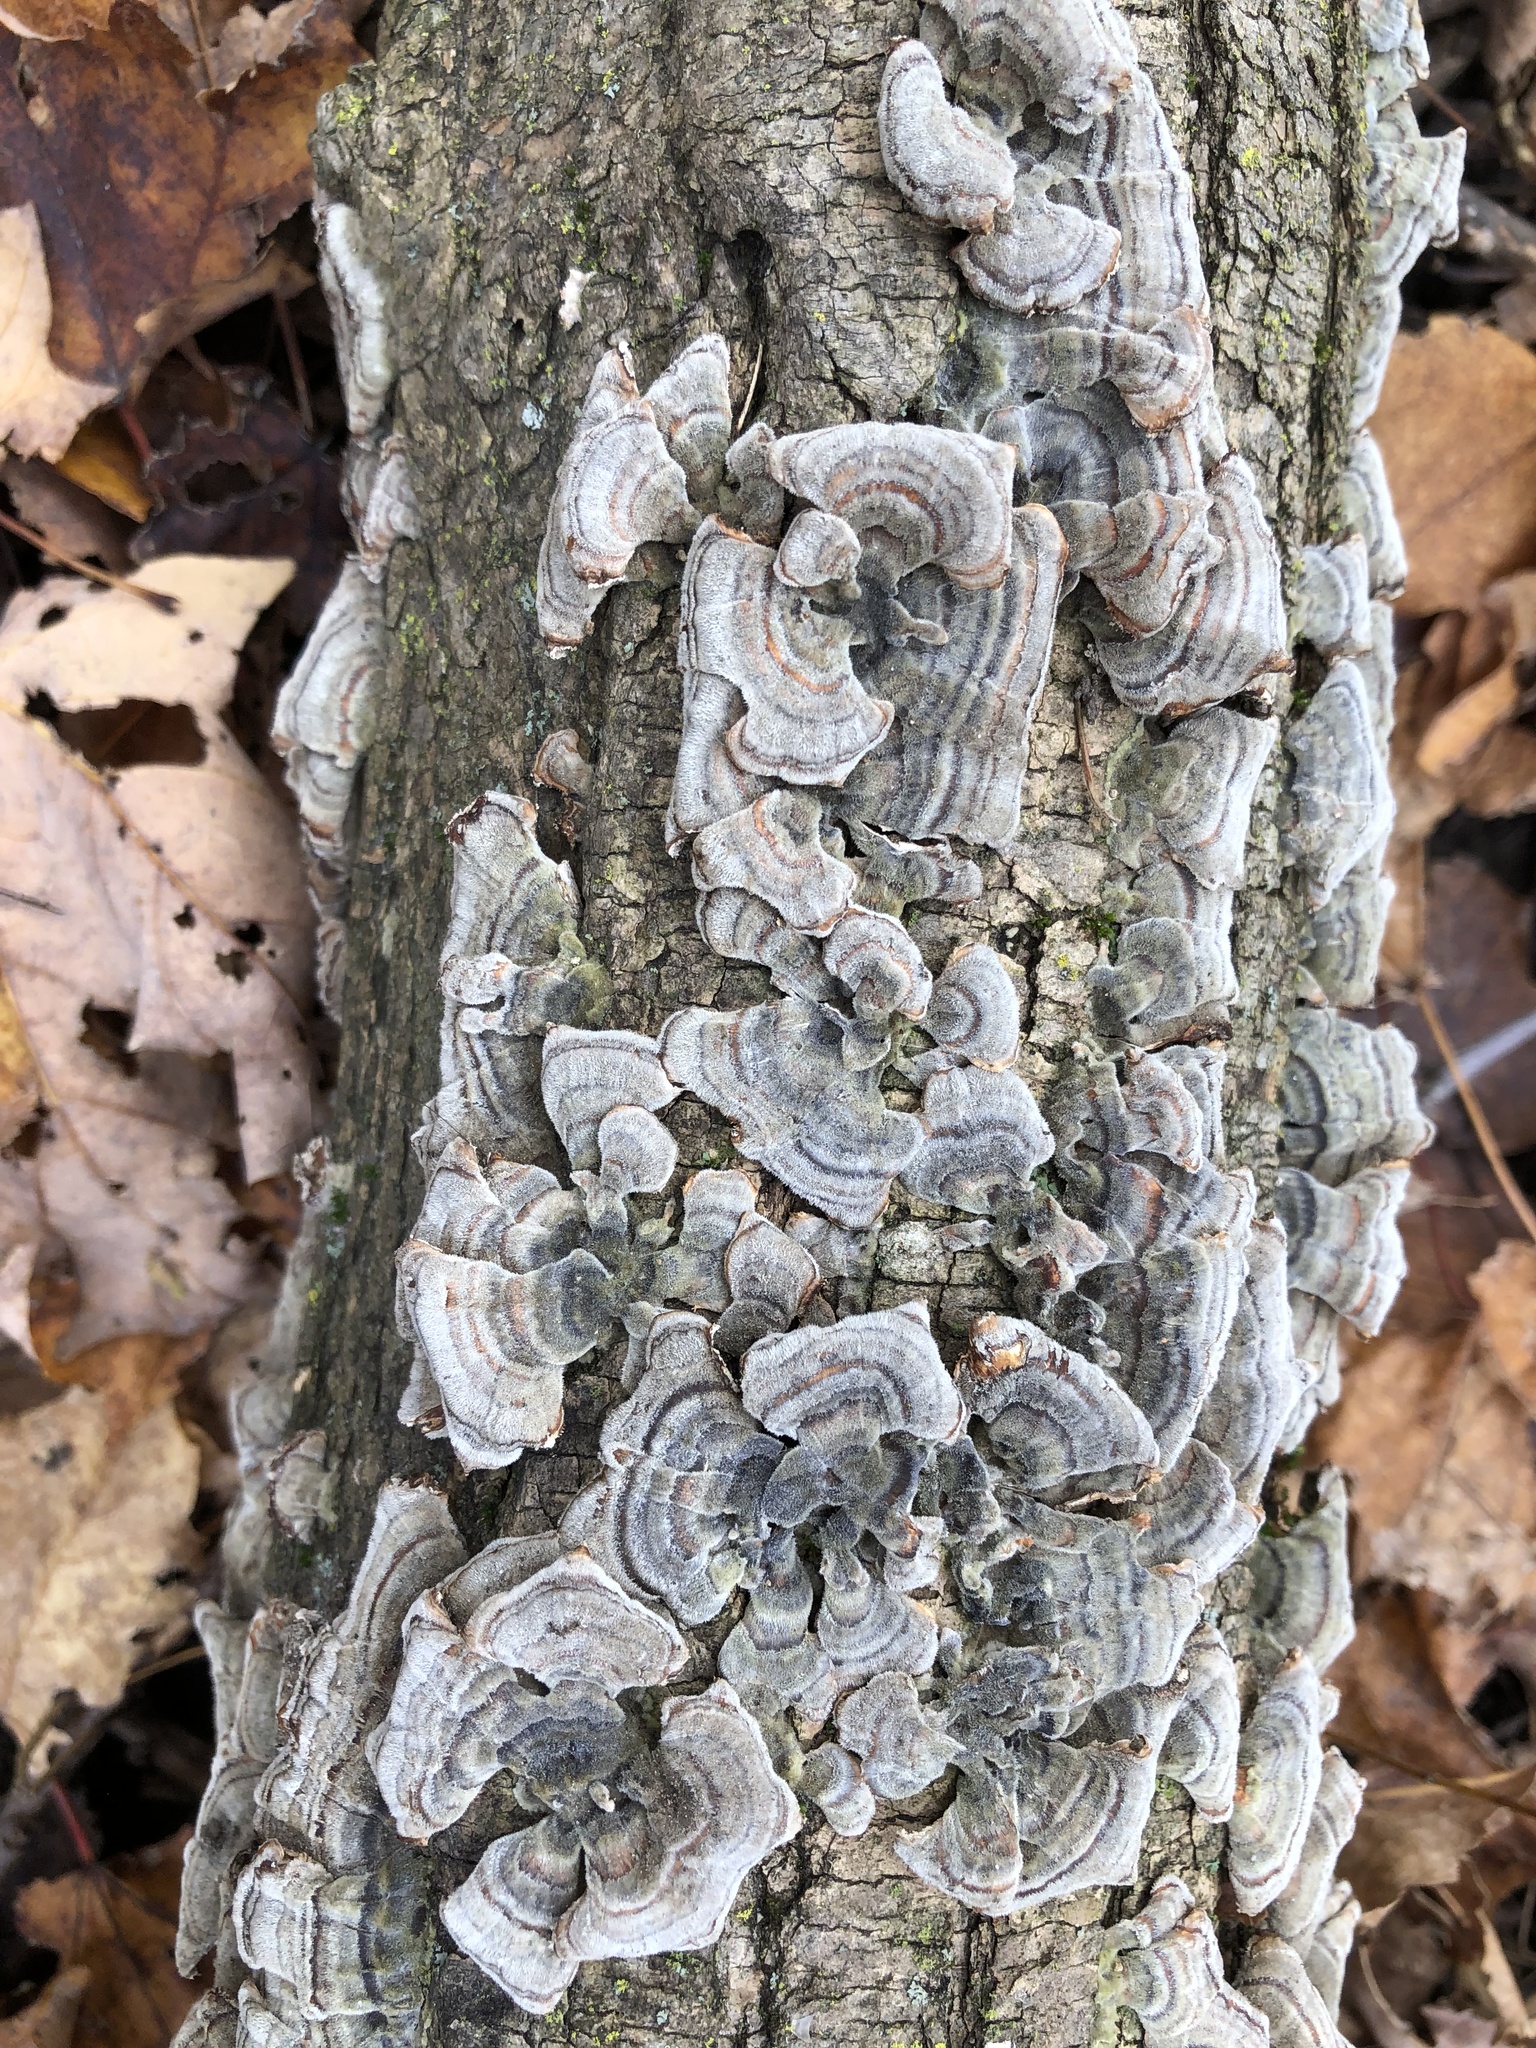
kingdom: Fungi
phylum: Basidiomycota
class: Agaricomycetes
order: Polyporales
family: Polyporaceae
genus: Trametes
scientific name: Trametes versicolor
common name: Turkeytail
